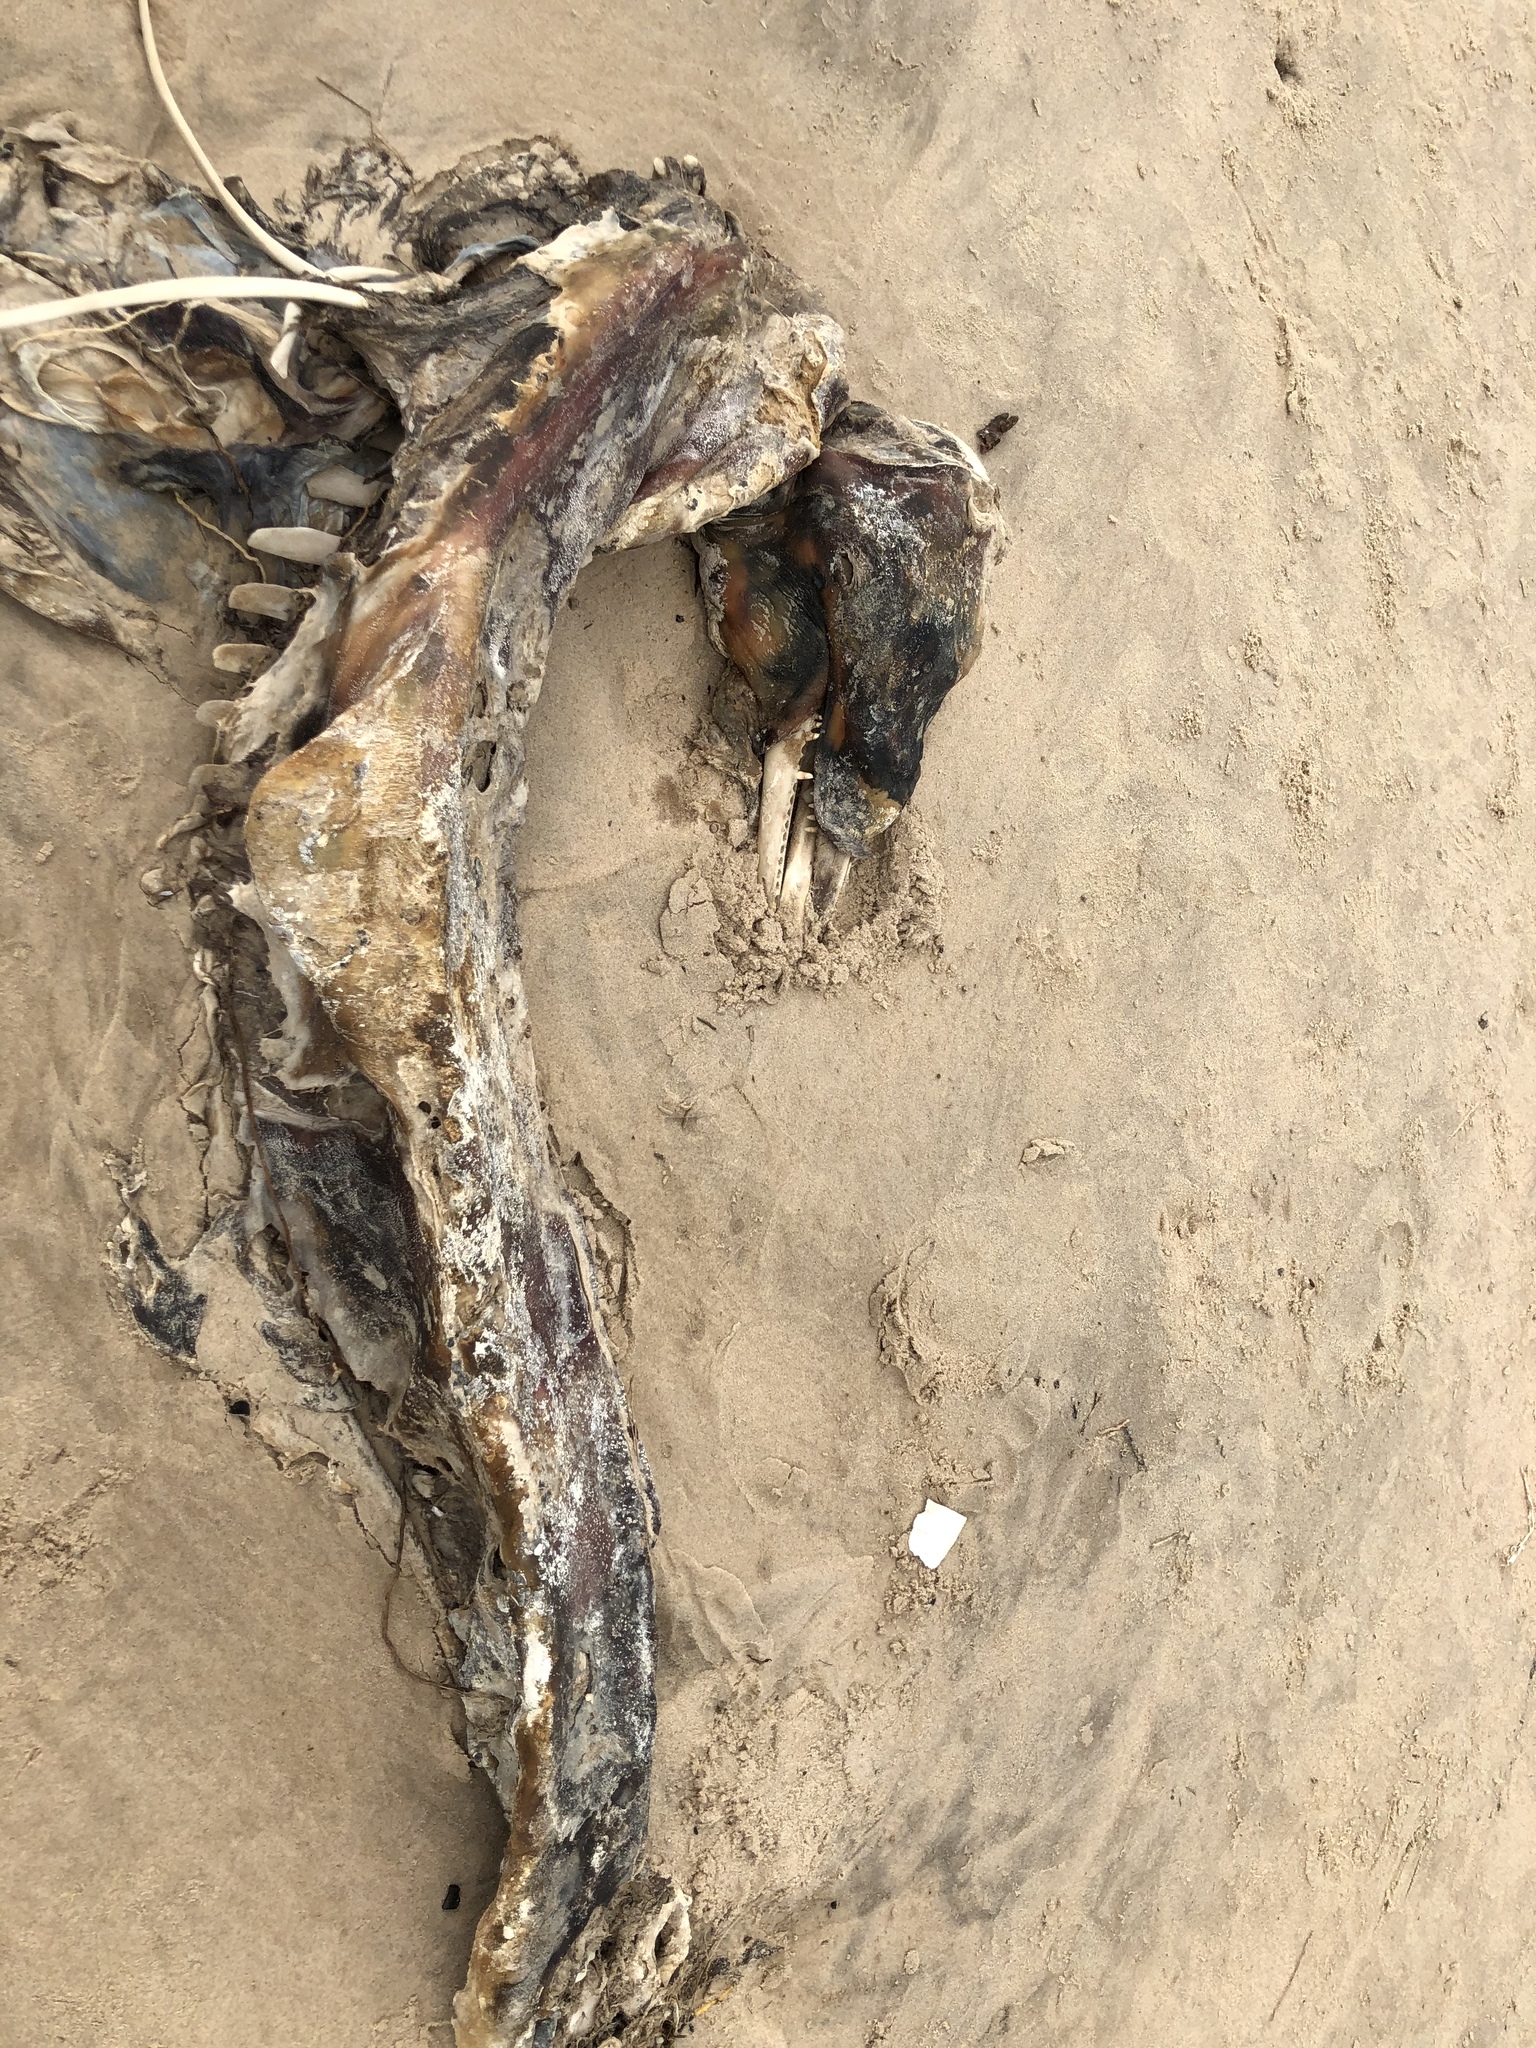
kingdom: Animalia
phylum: Chordata
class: Mammalia
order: Cetacea
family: Delphinidae
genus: Tursiops
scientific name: Tursiops truncatus
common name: Bottlenose dolphin
